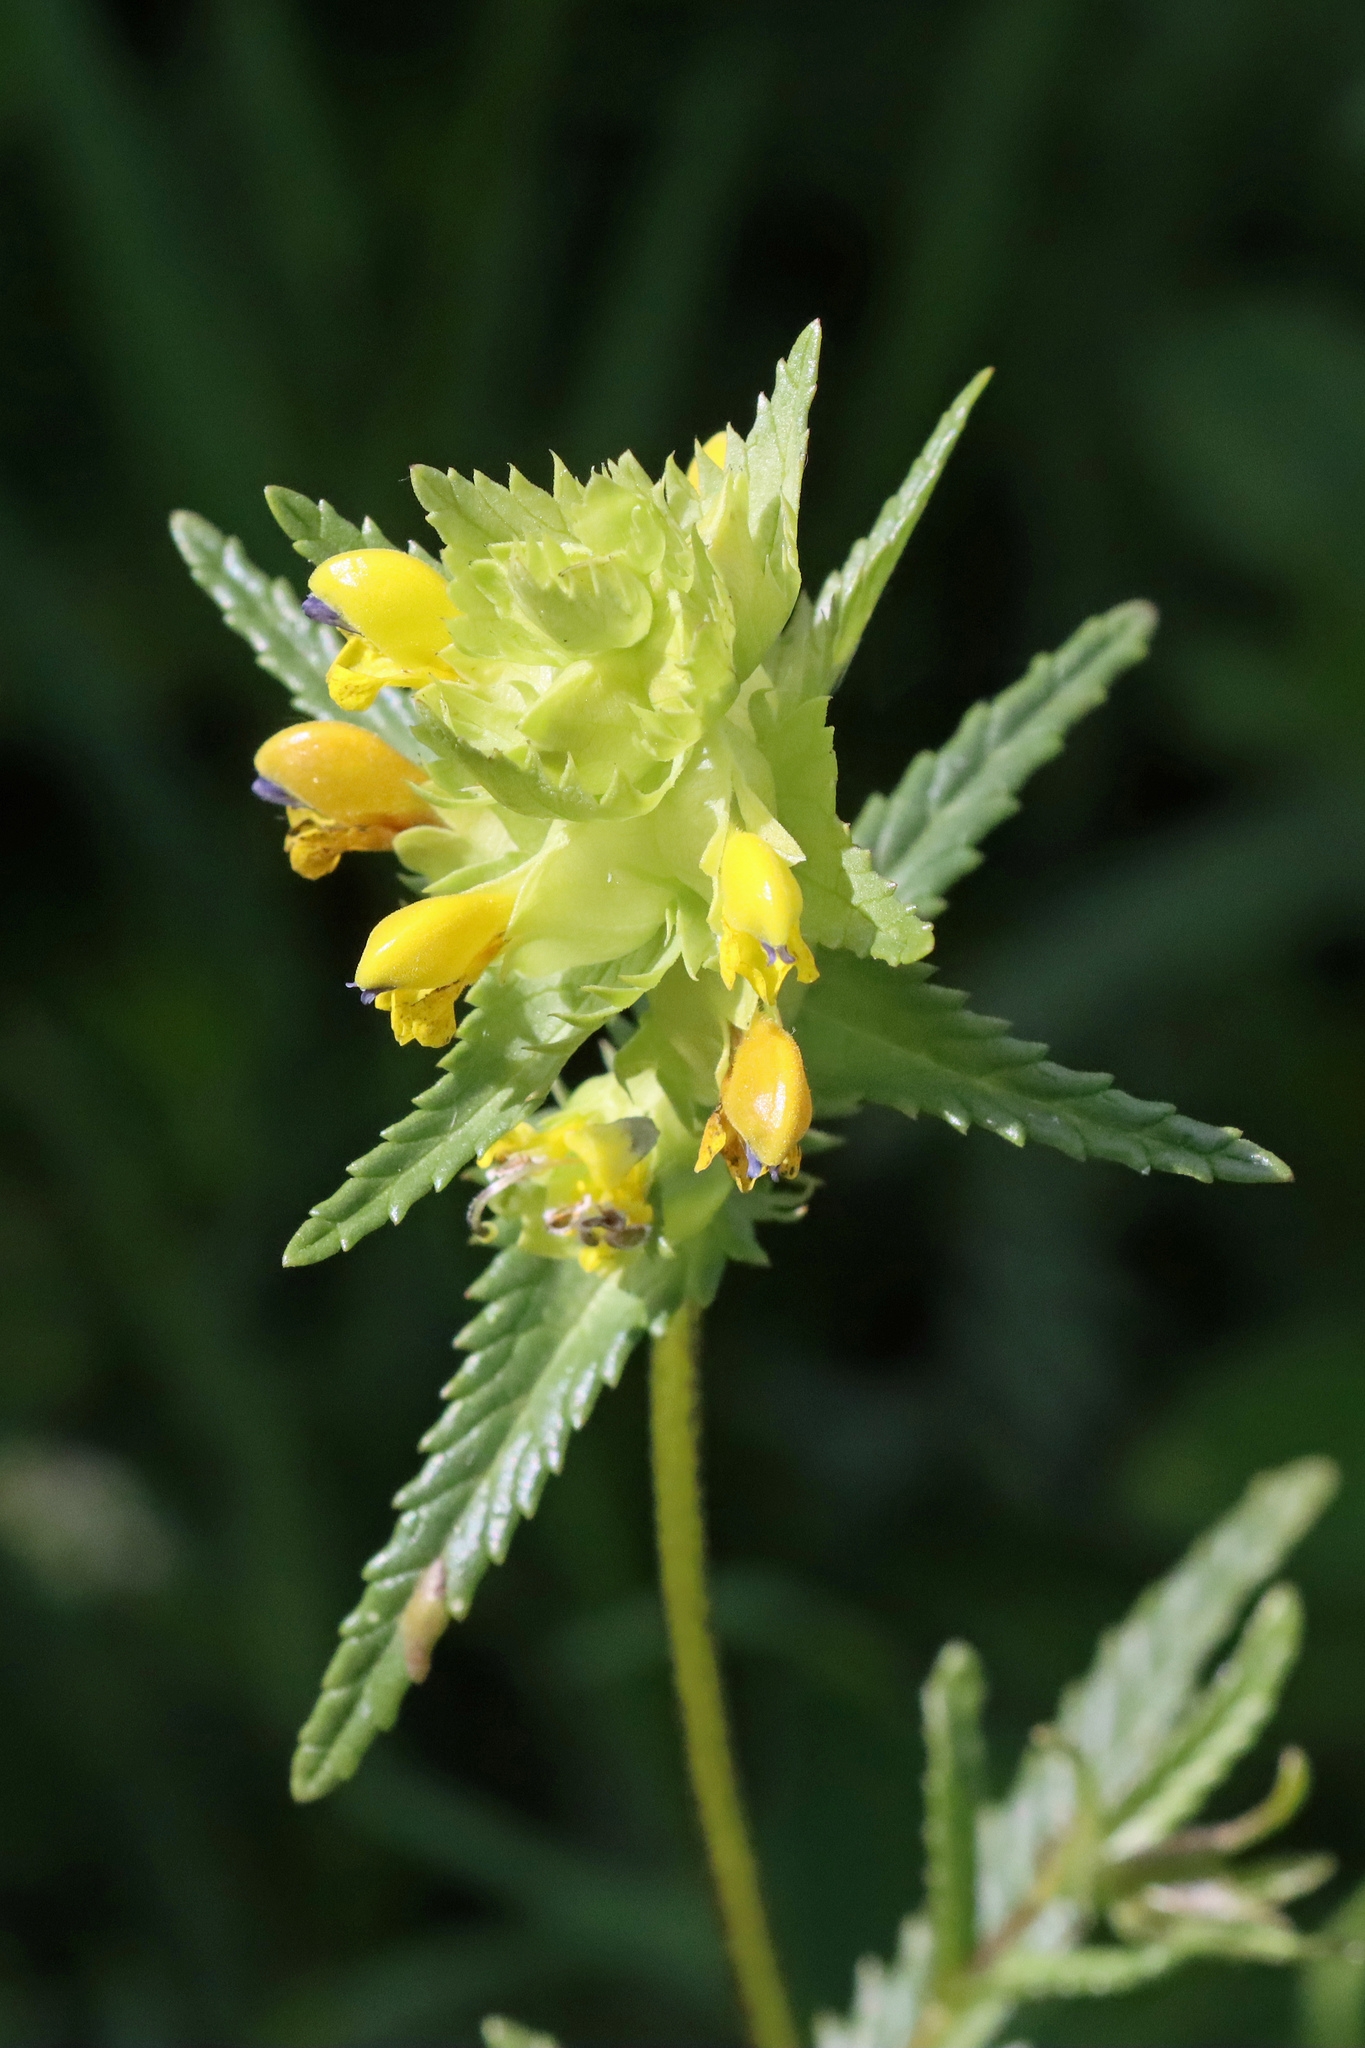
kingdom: Plantae
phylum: Tracheophyta
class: Magnoliopsida
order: Lamiales
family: Orobanchaceae
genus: Rhinanthus
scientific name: Rhinanthus minor
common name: Yellow-rattle
